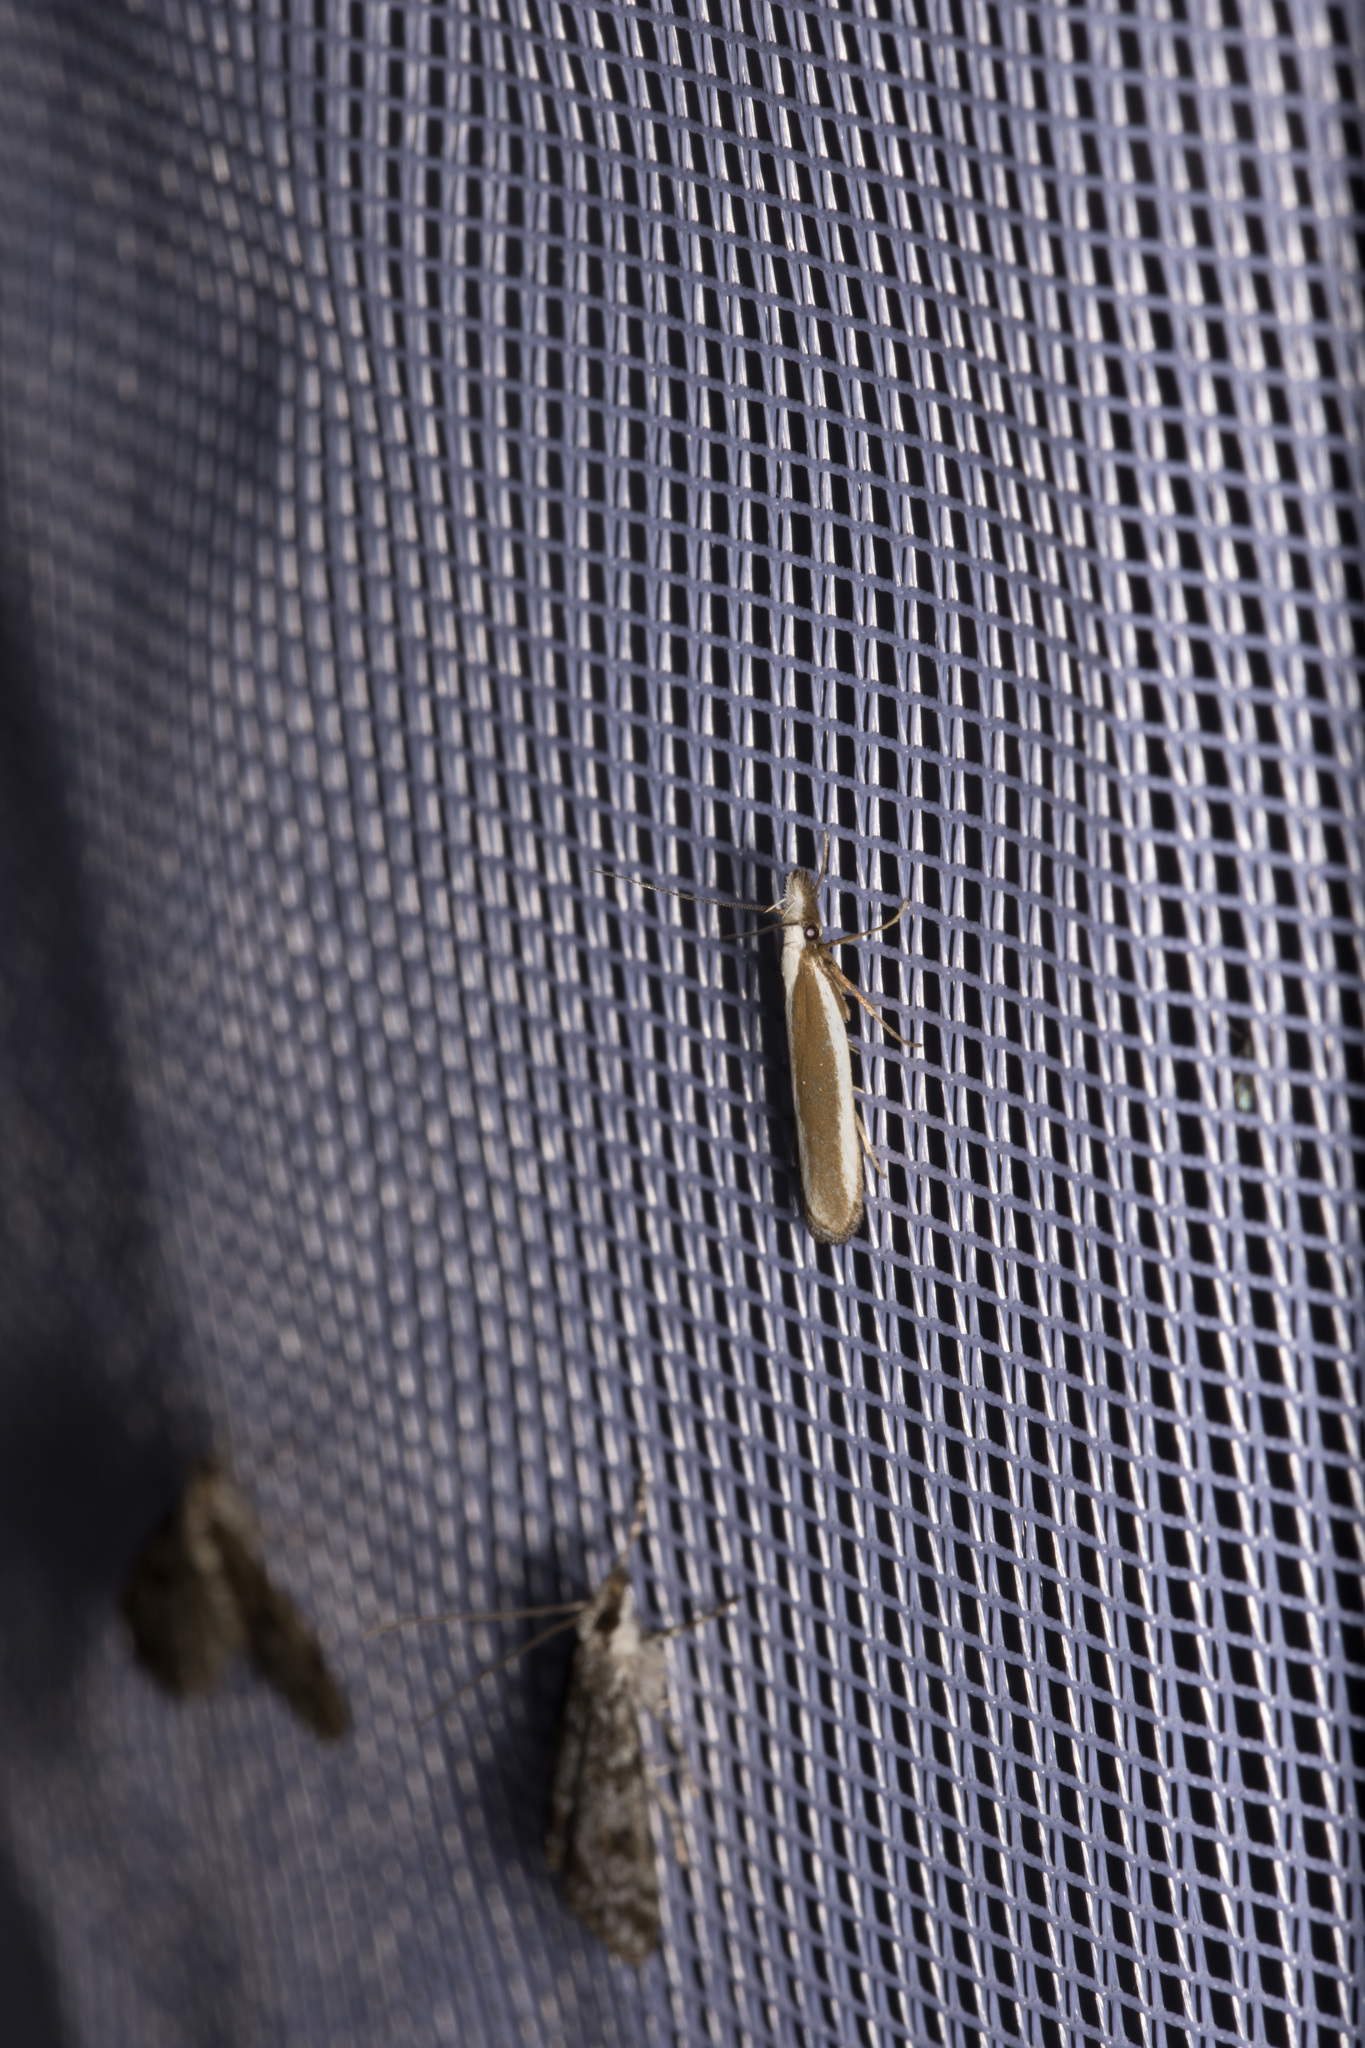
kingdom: Animalia
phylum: Arthropoda
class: Insecta
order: Lepidoptera
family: Gelechiidae
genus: Dichomeris
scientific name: Dichomeris marginella
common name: Juniper webworm
